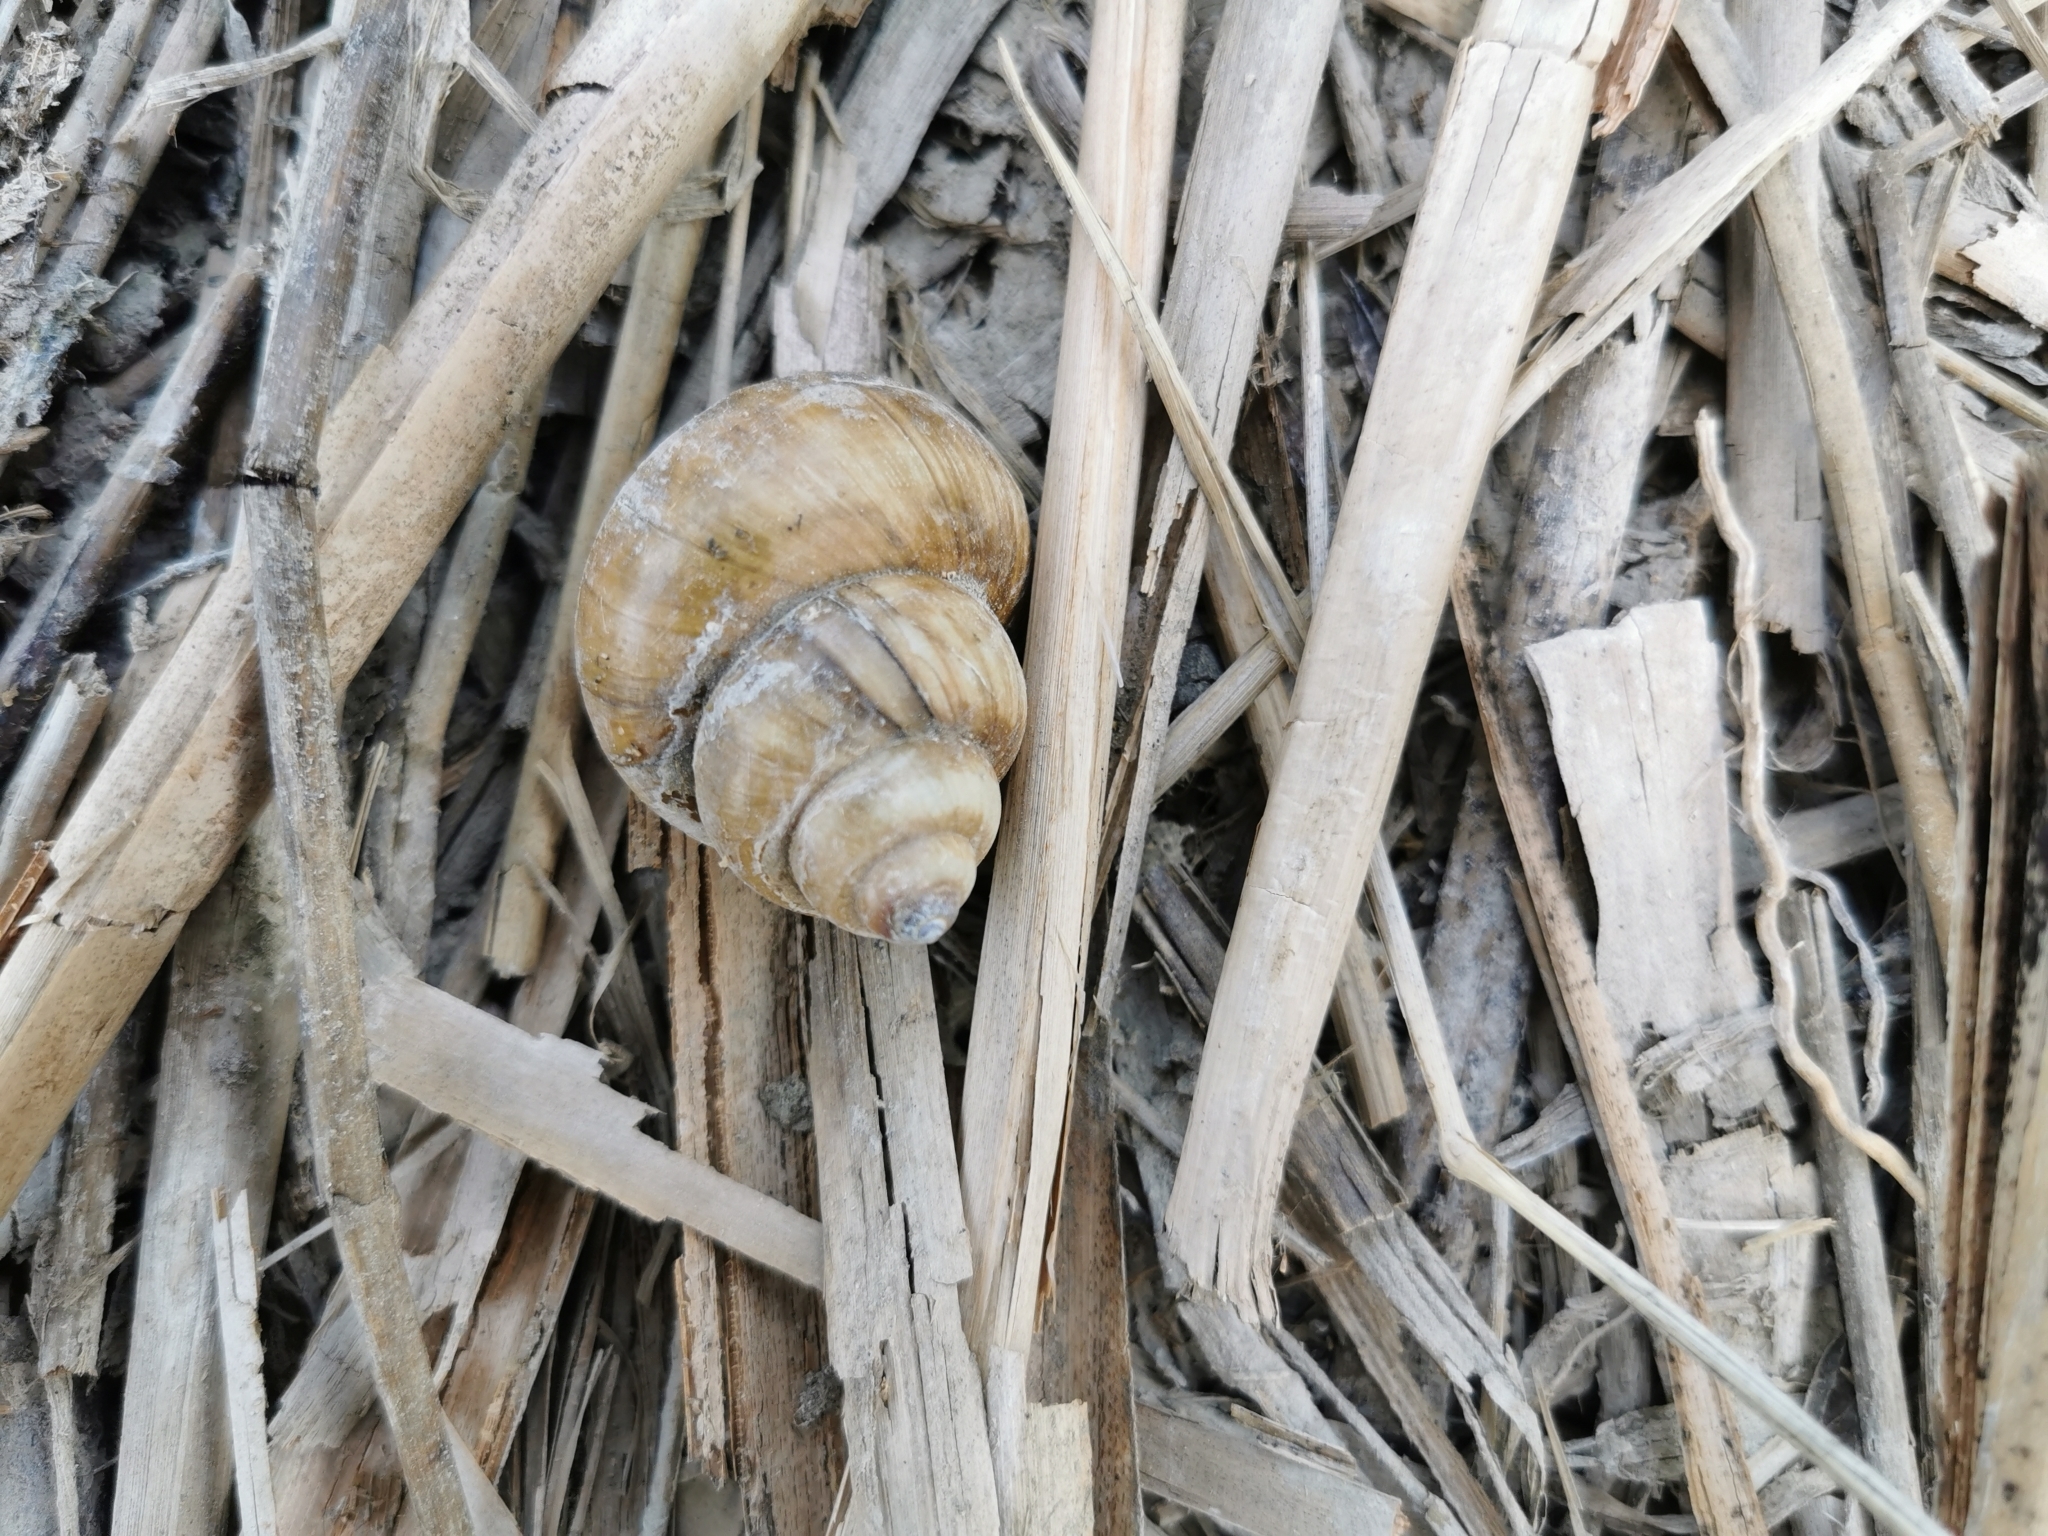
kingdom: Animalia
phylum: Mollusca
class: Gastropoda
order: Architaenioglossa
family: Viviparidae
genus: Cipangopaludina
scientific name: Cipangopaludina chinensis
